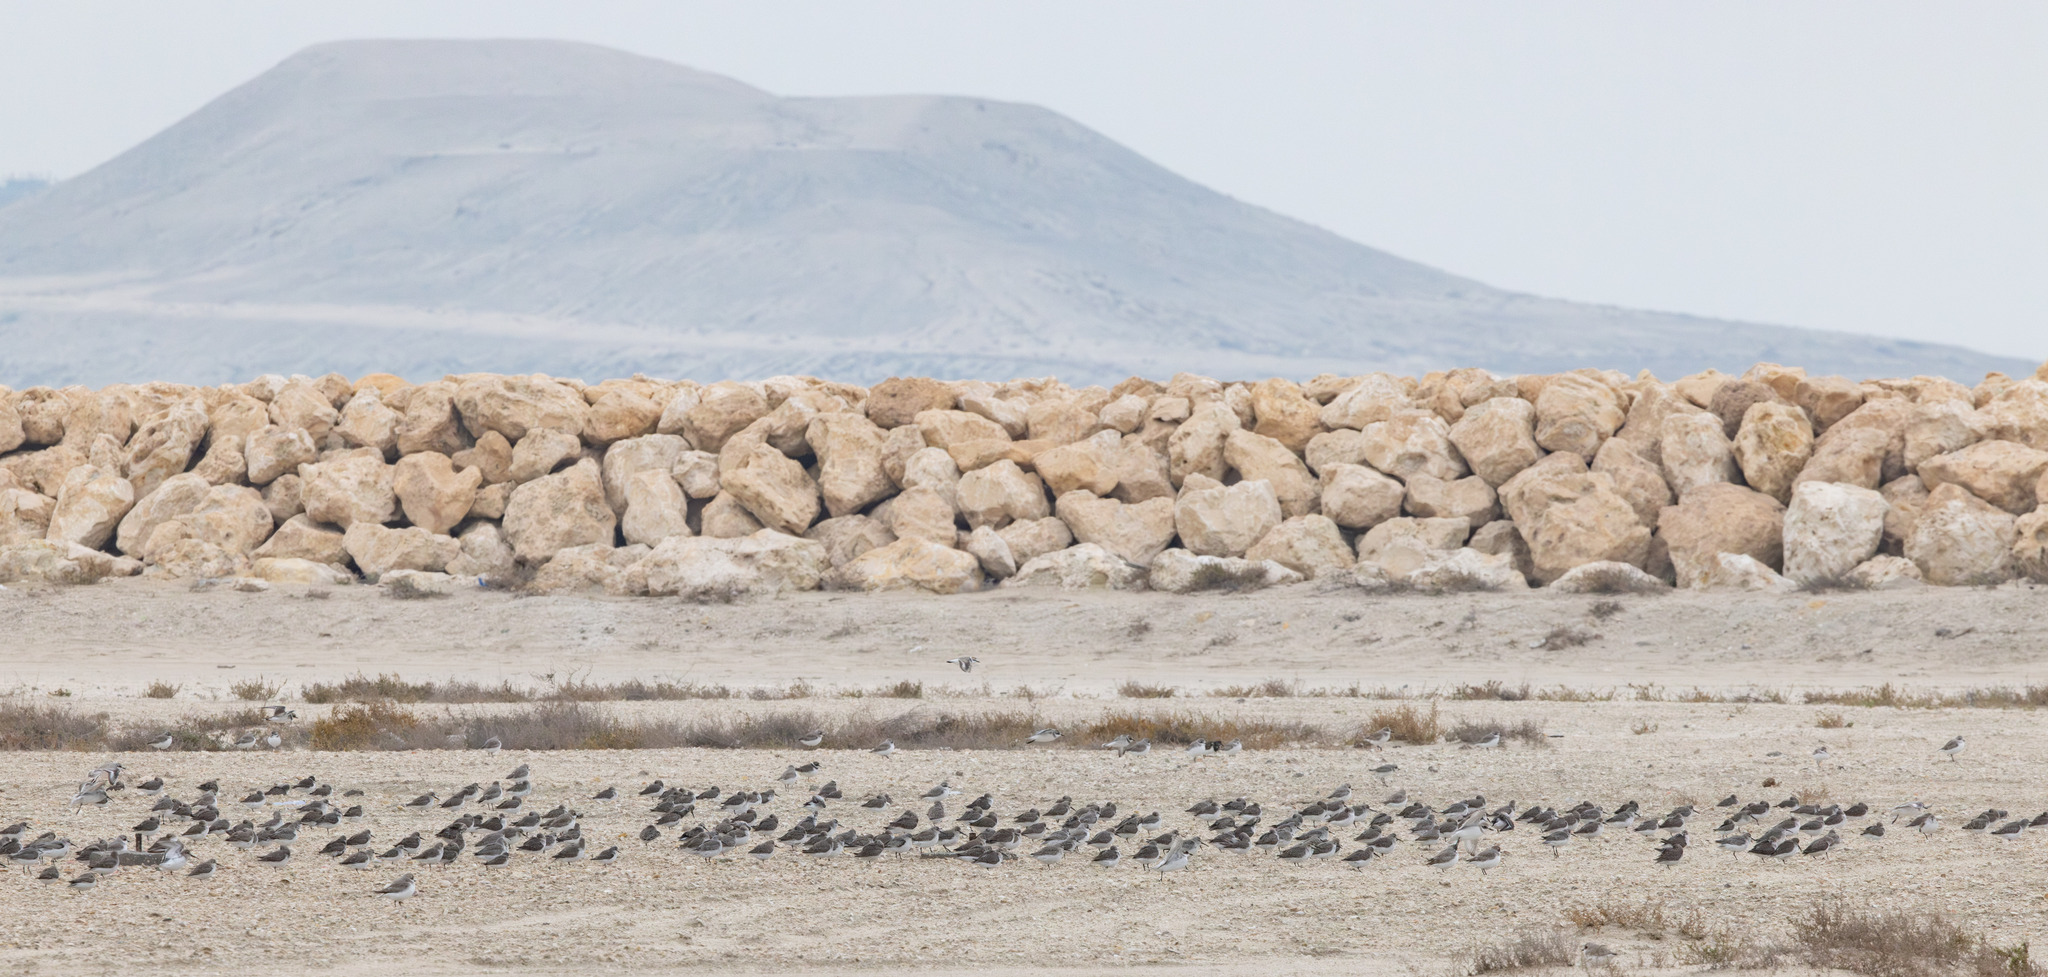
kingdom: Animalia
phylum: Chordata
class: Aves
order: Charadriiformes
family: Scolopacidae
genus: Calidris
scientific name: Calidris alpina
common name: Dunlin
